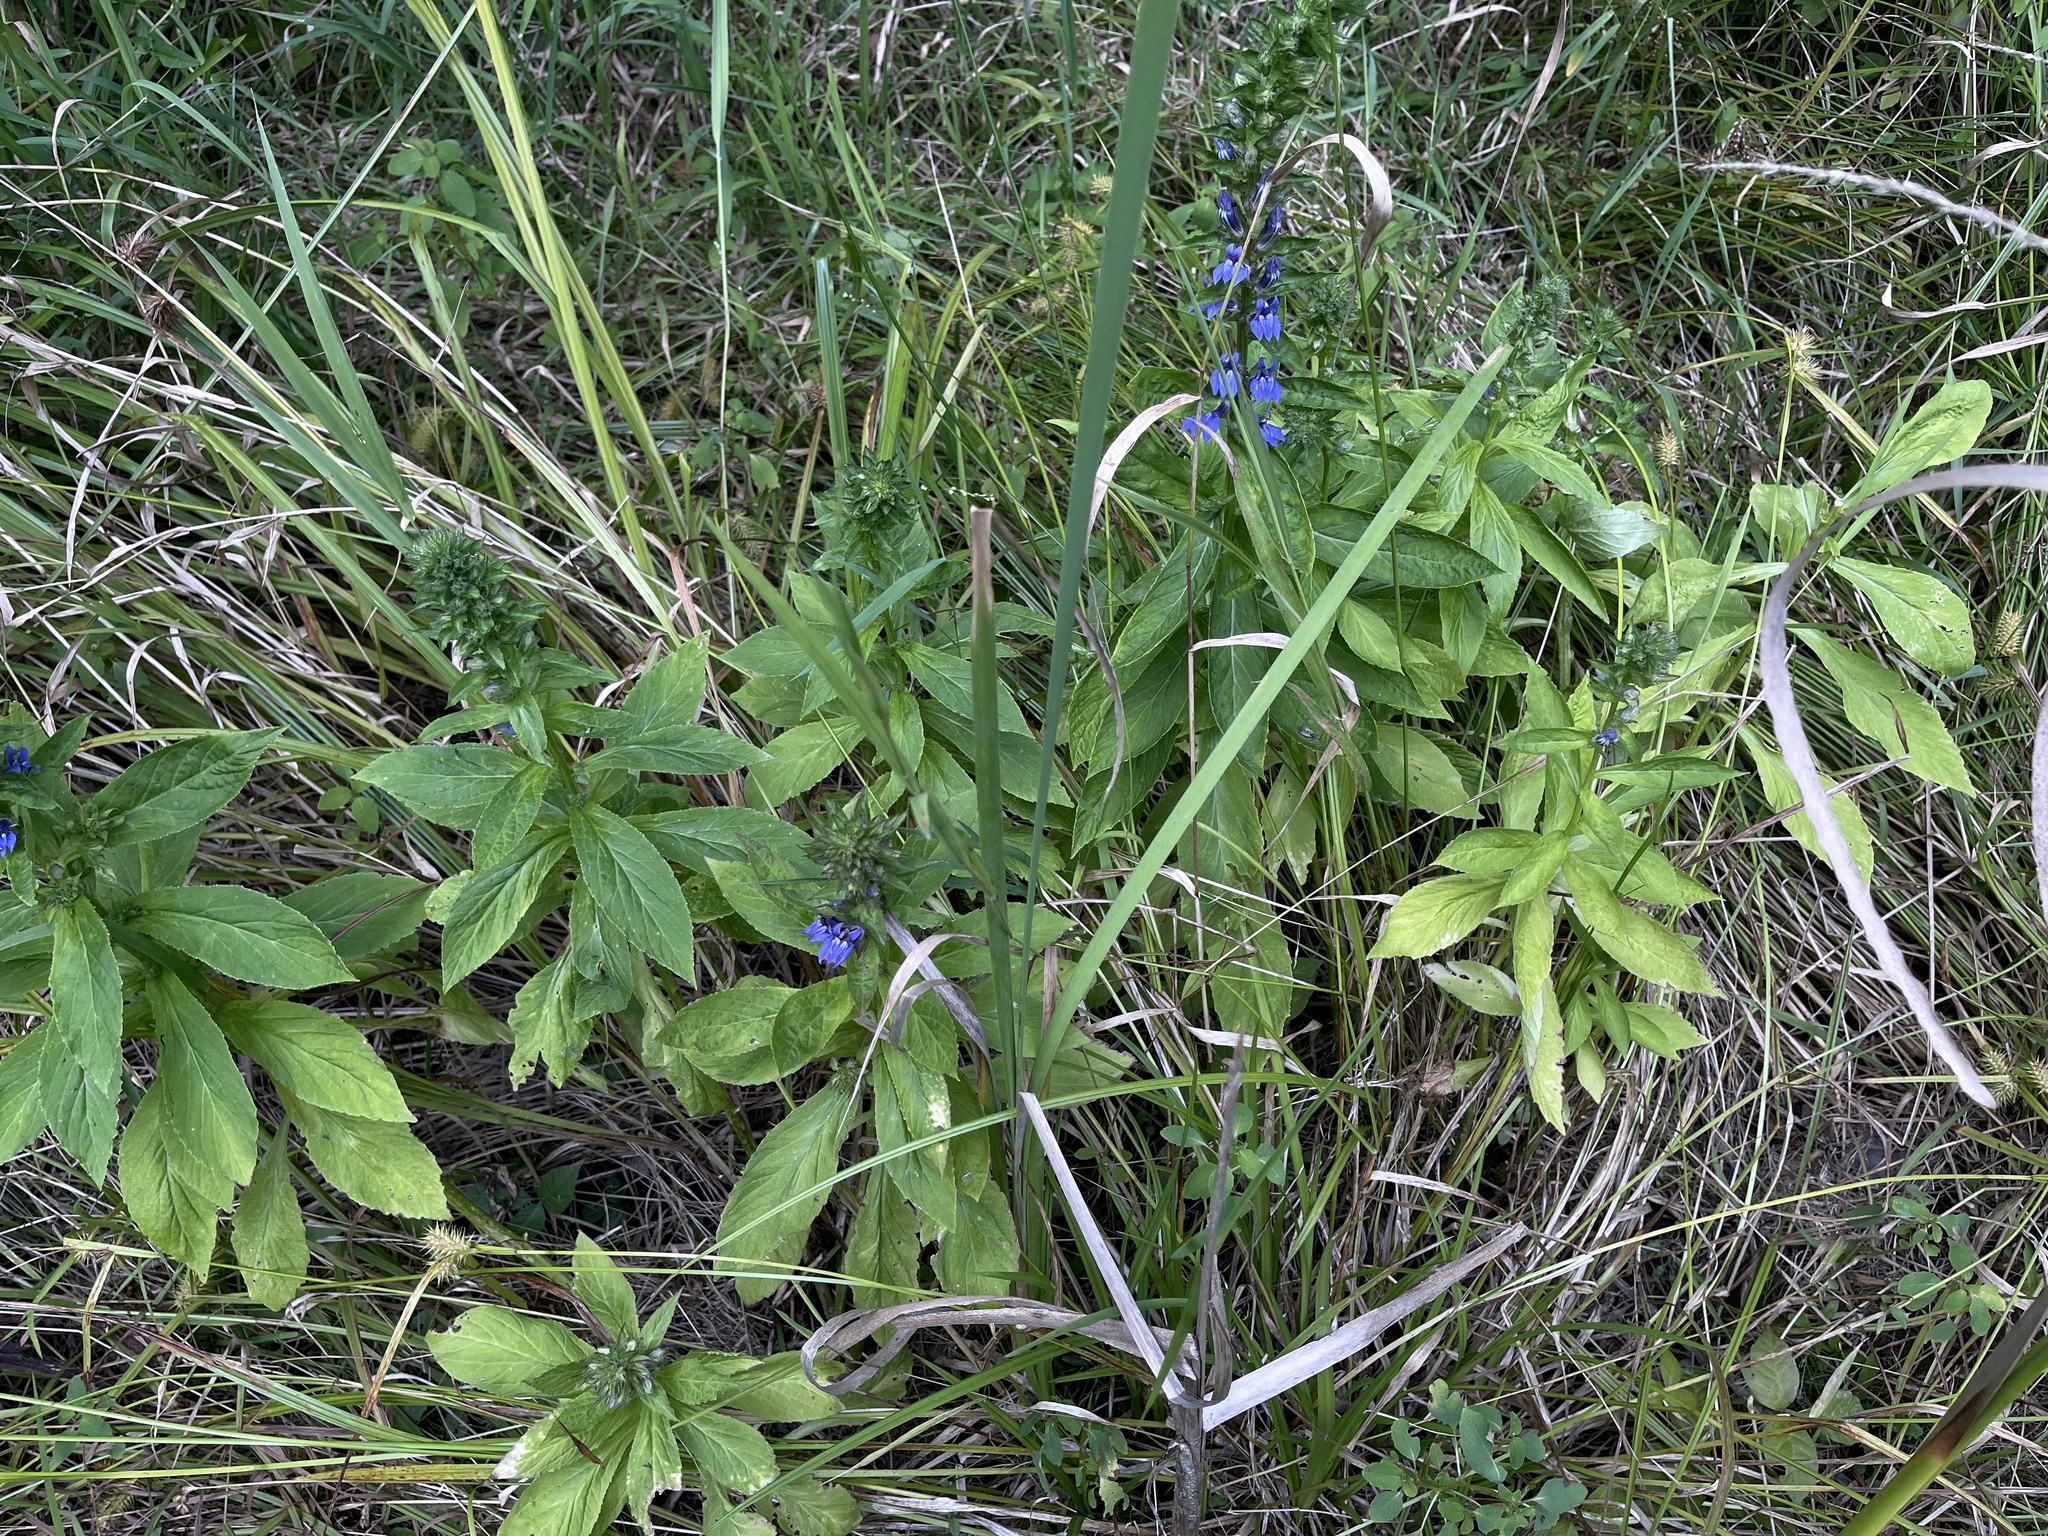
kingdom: Plantae
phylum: Tracheophyta
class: Magnoliopsida
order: Asterales
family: Campanulaceae
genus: Lobelia
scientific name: Lobelia siphilitica
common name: Great lobelia
